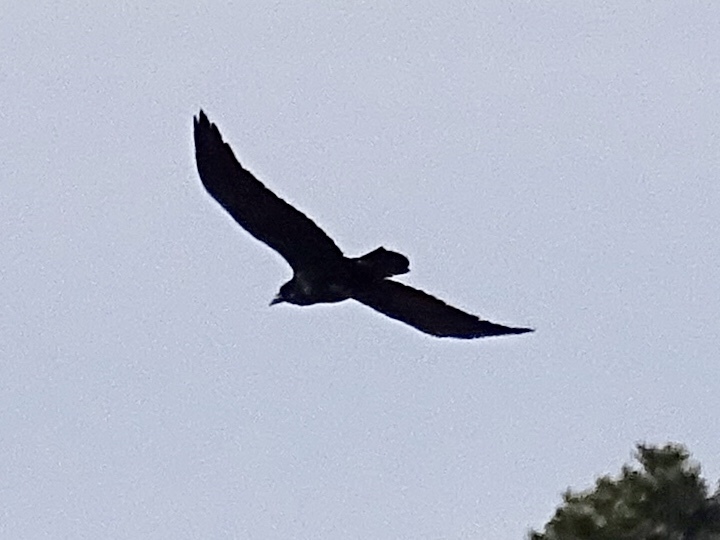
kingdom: Animalia
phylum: Chordata
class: Aves
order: Passeriformes
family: Corvidae
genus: Corvus
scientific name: Corvus corax
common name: Common raven
